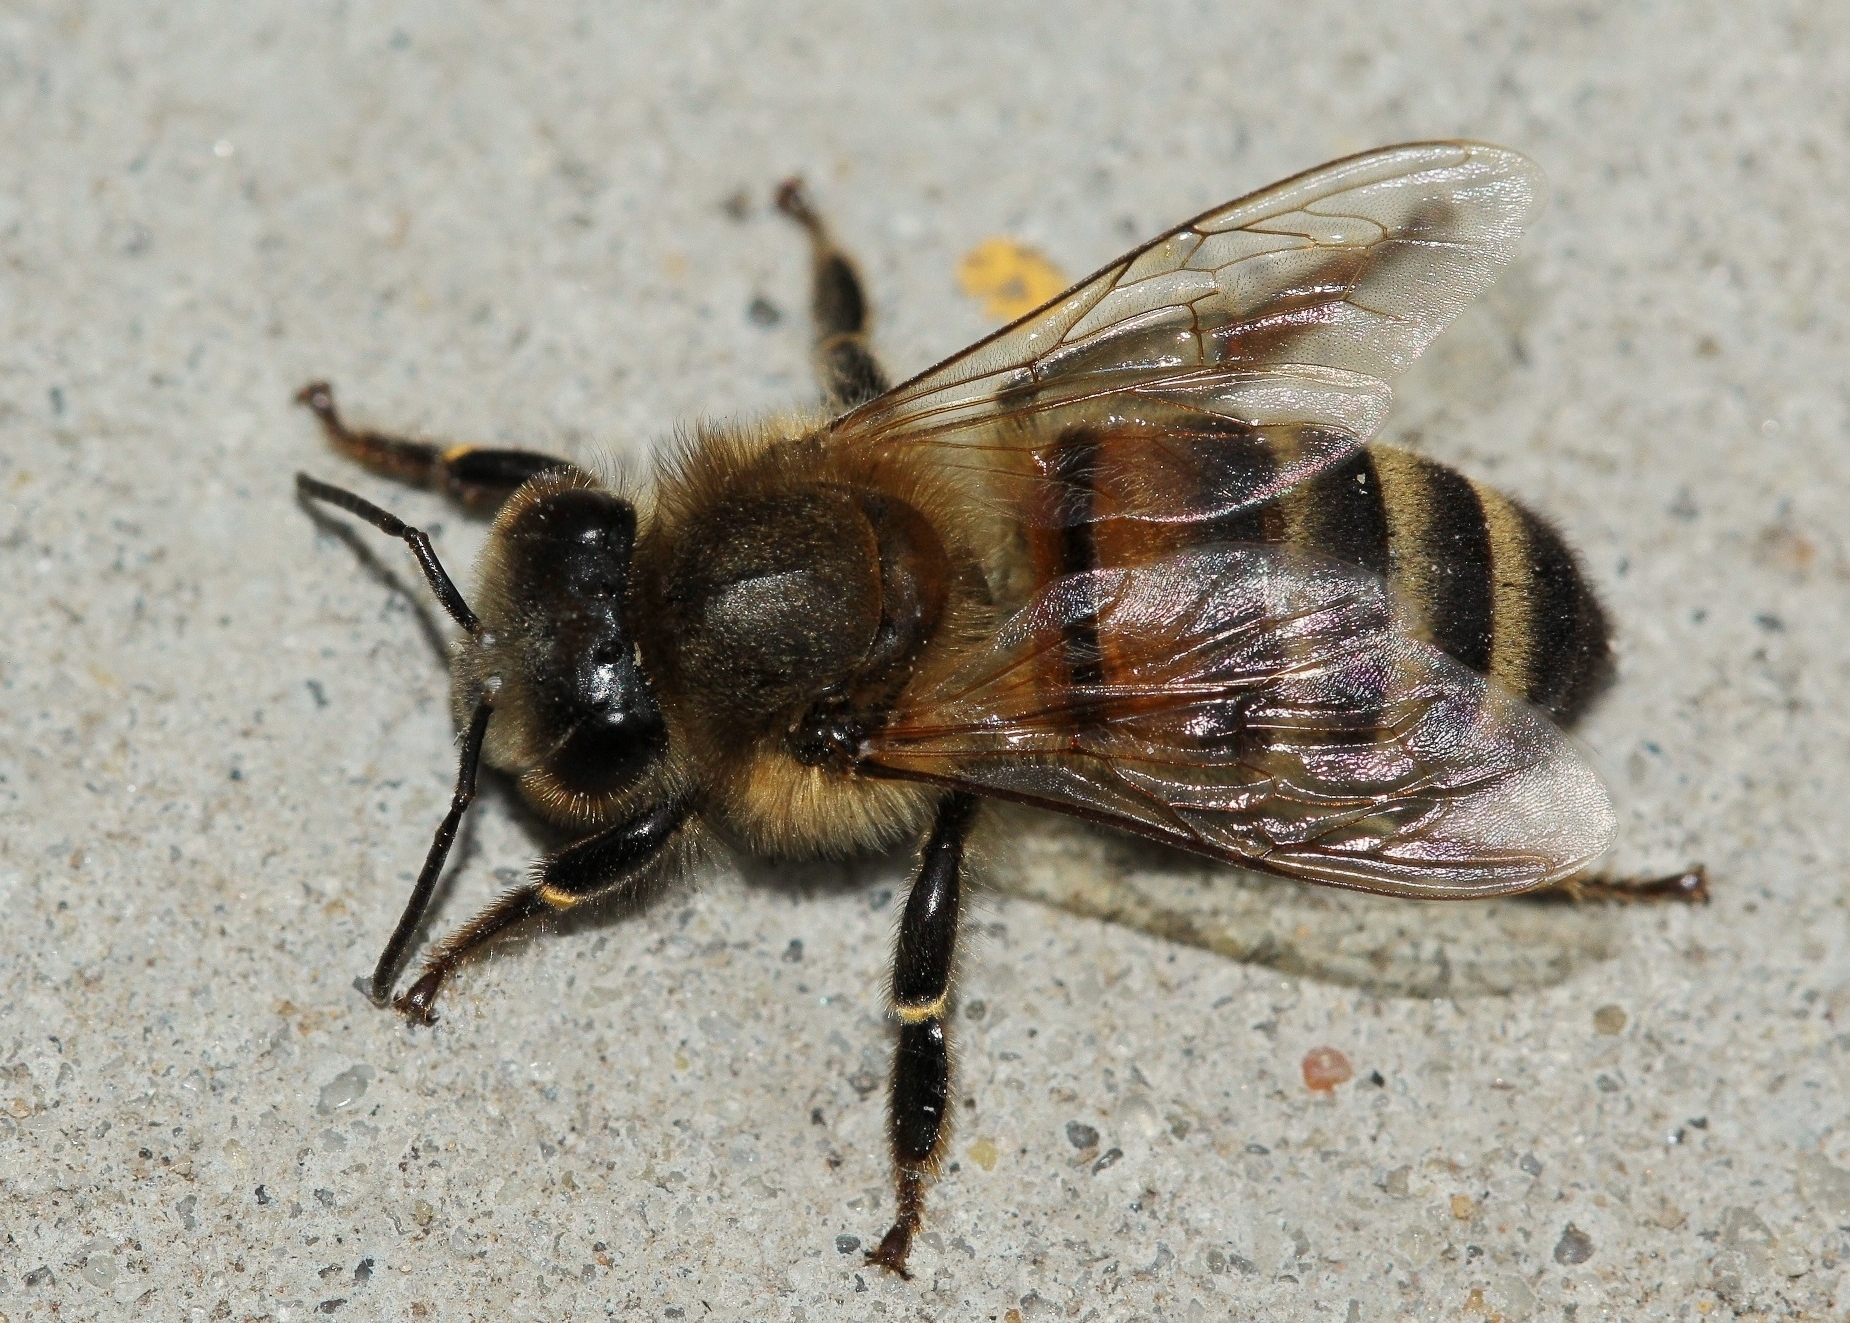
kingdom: Animalia
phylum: Arthropoda
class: Insecta
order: Hymenoptera
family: Apidae
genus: Apis
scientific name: Apis mellifera
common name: Honey bee
